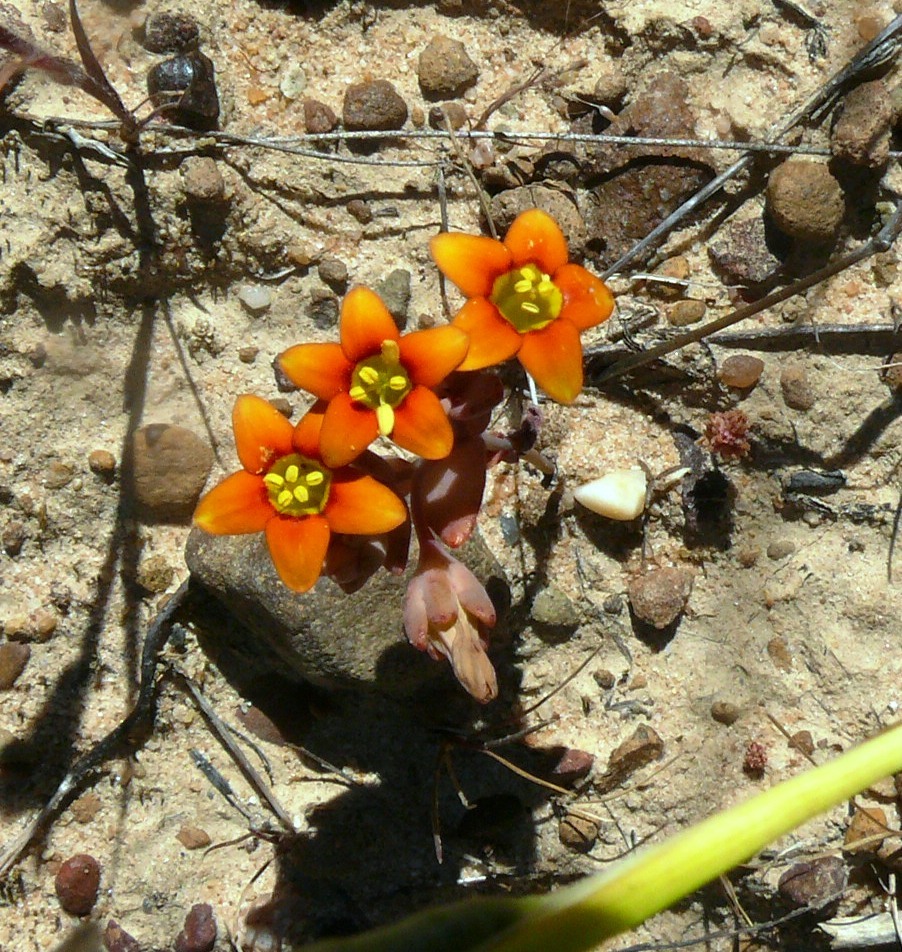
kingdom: Plantae
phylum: Tracheophyta
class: Magnoliopsida
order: Saxifragales
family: Crassulaceae
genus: Crassula
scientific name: Crassula dichotoma
